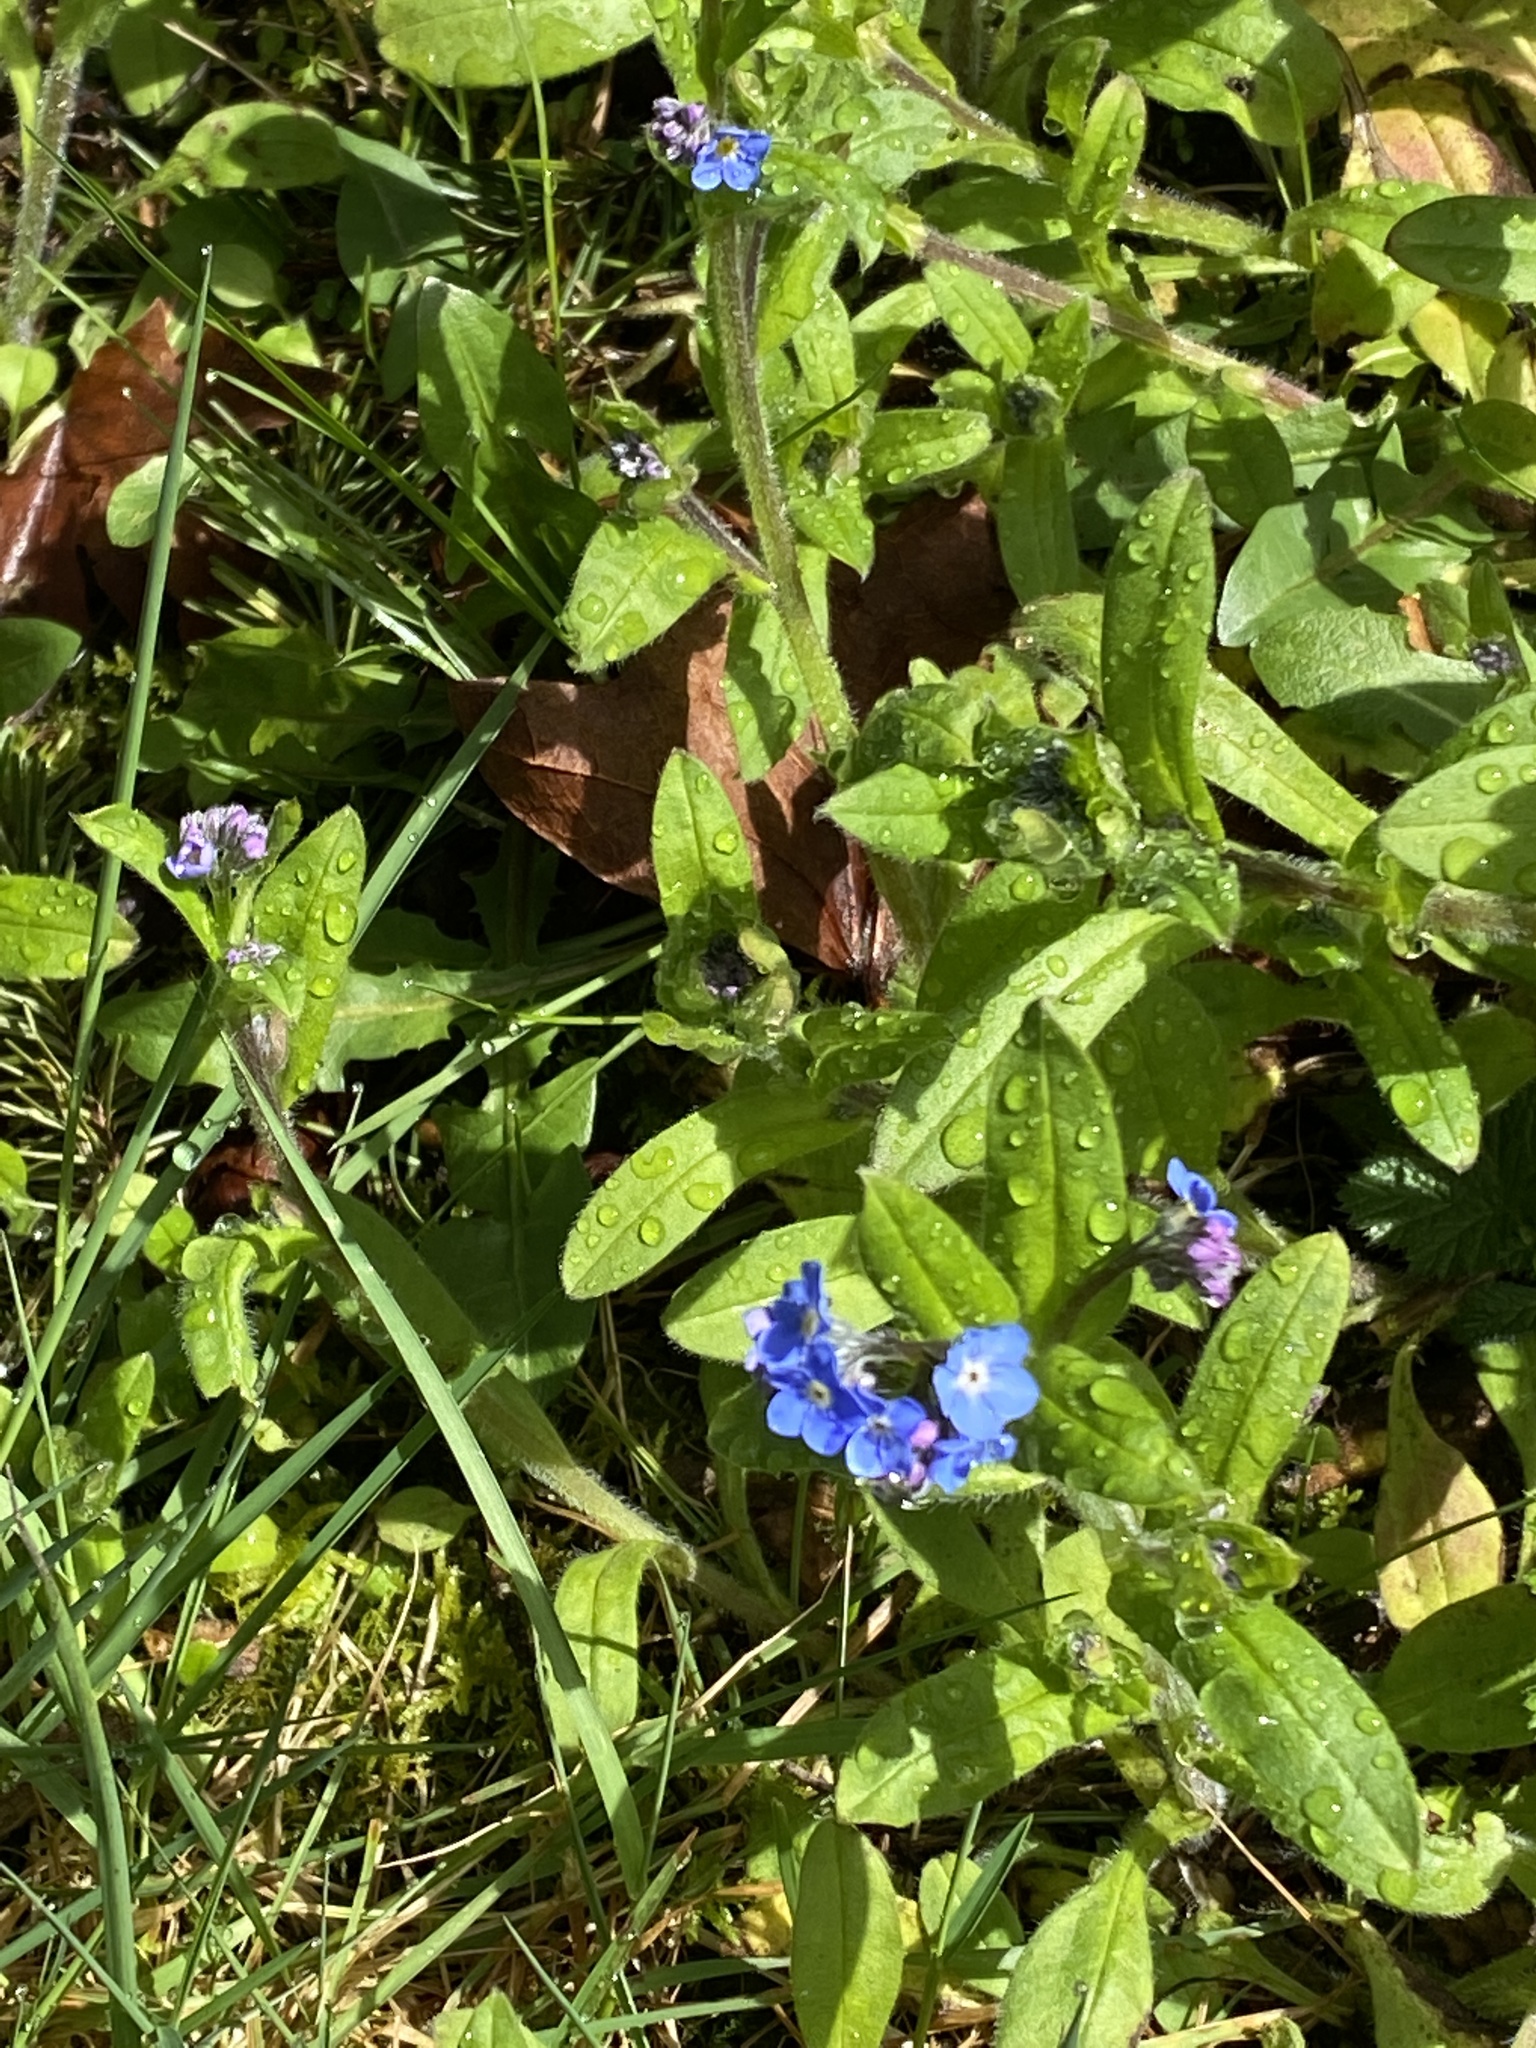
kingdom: Plantae
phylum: Tracheophyta
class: Magnoliopsida
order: Boraginales
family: Boraginaceae
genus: Myosotis
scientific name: Myosotis sylvatica
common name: Wood forget-me-not
